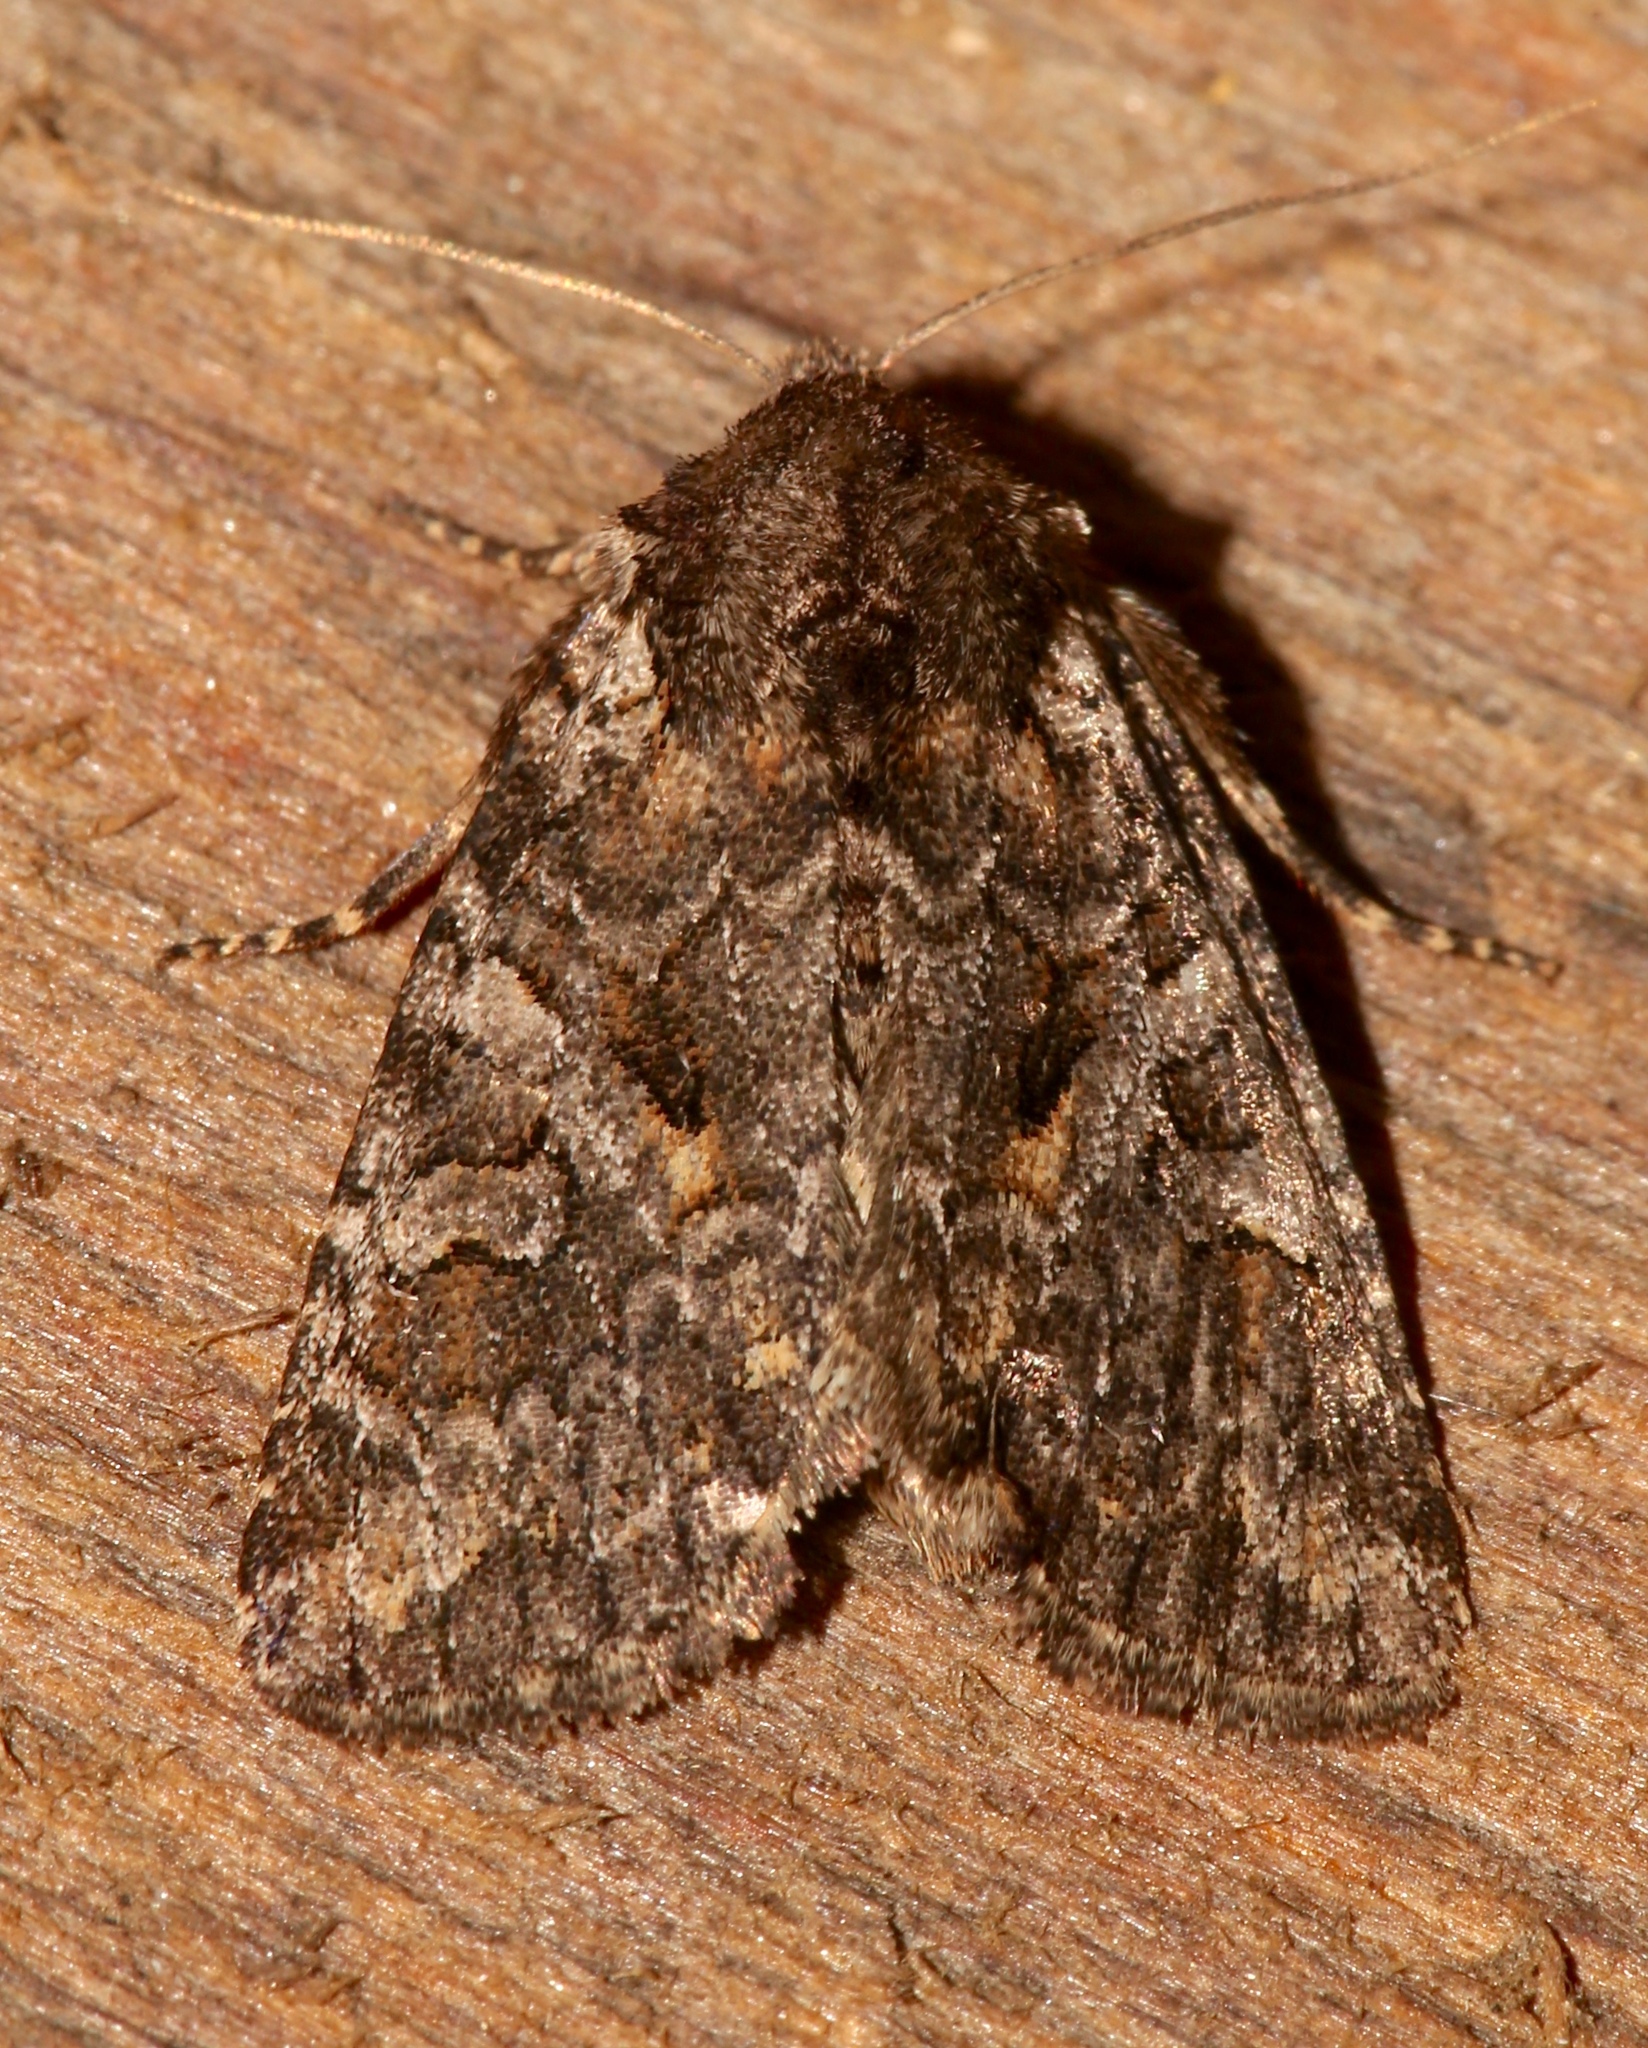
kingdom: Animalia
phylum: Arthropoda
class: Insecta
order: Lepidoptera
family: Noctuidae
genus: Orthodes
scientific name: Orthodes detracta
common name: Disparaged arches moth
